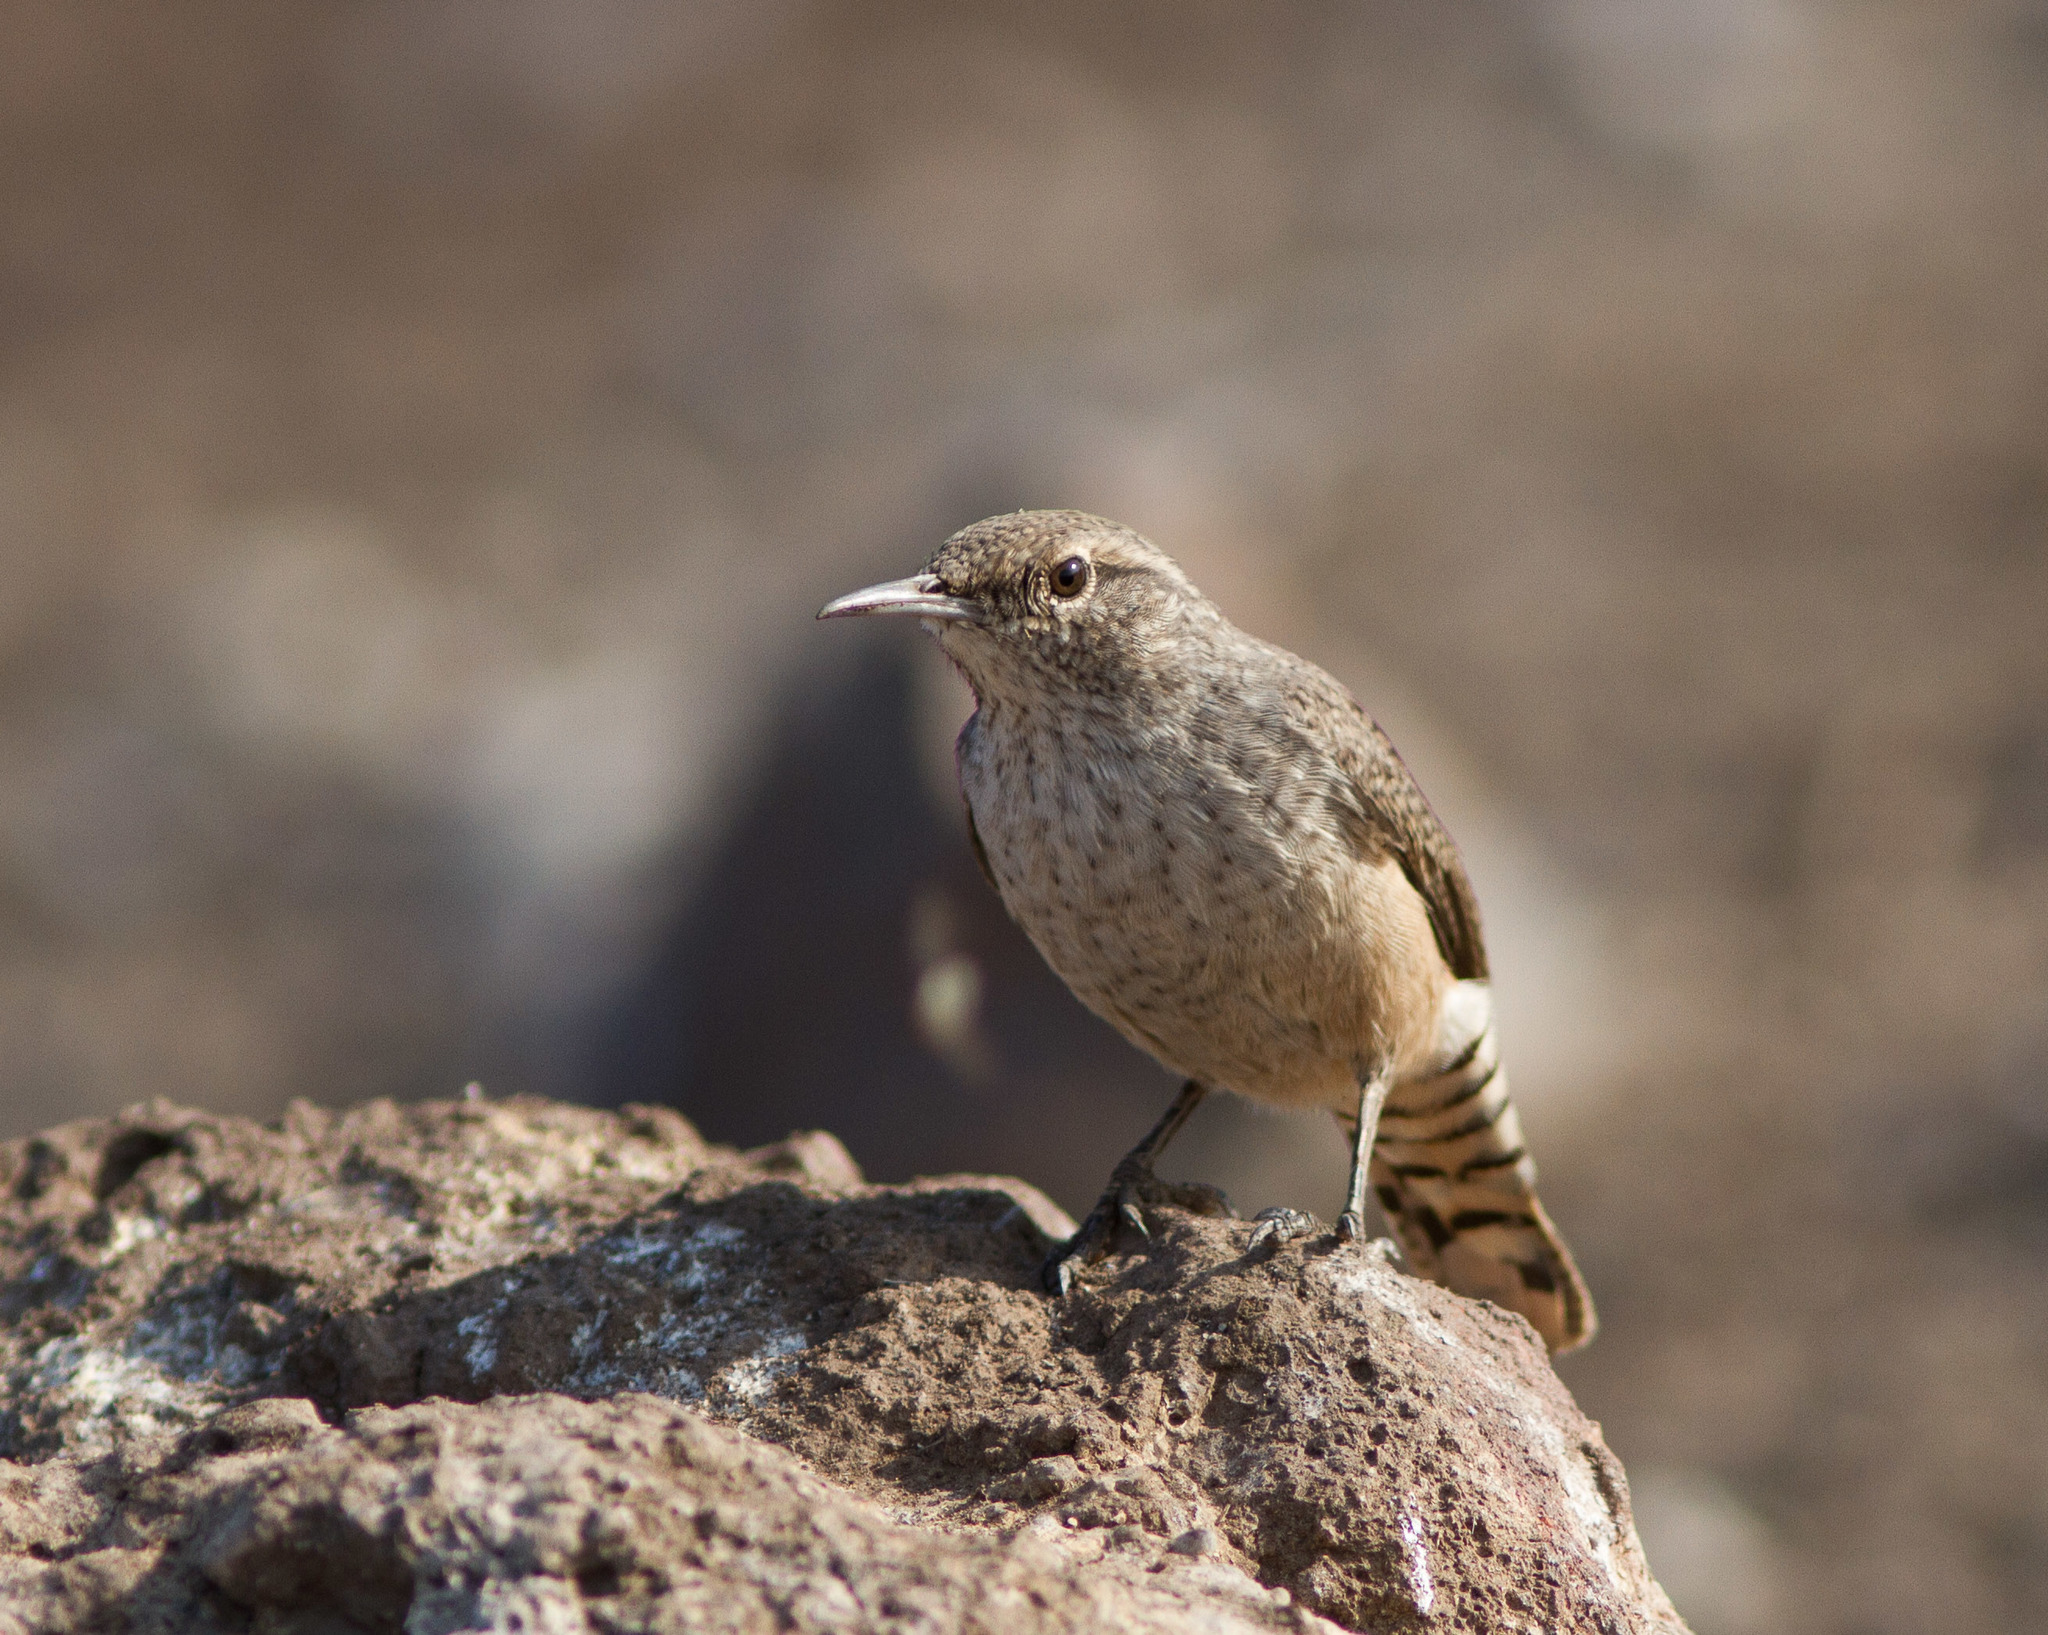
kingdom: Animalia
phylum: Chordata
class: Aves
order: Passeriformes
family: Troglodytidae
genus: Salpinctes
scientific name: Salpinctes obsoletus
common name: Rock wren
